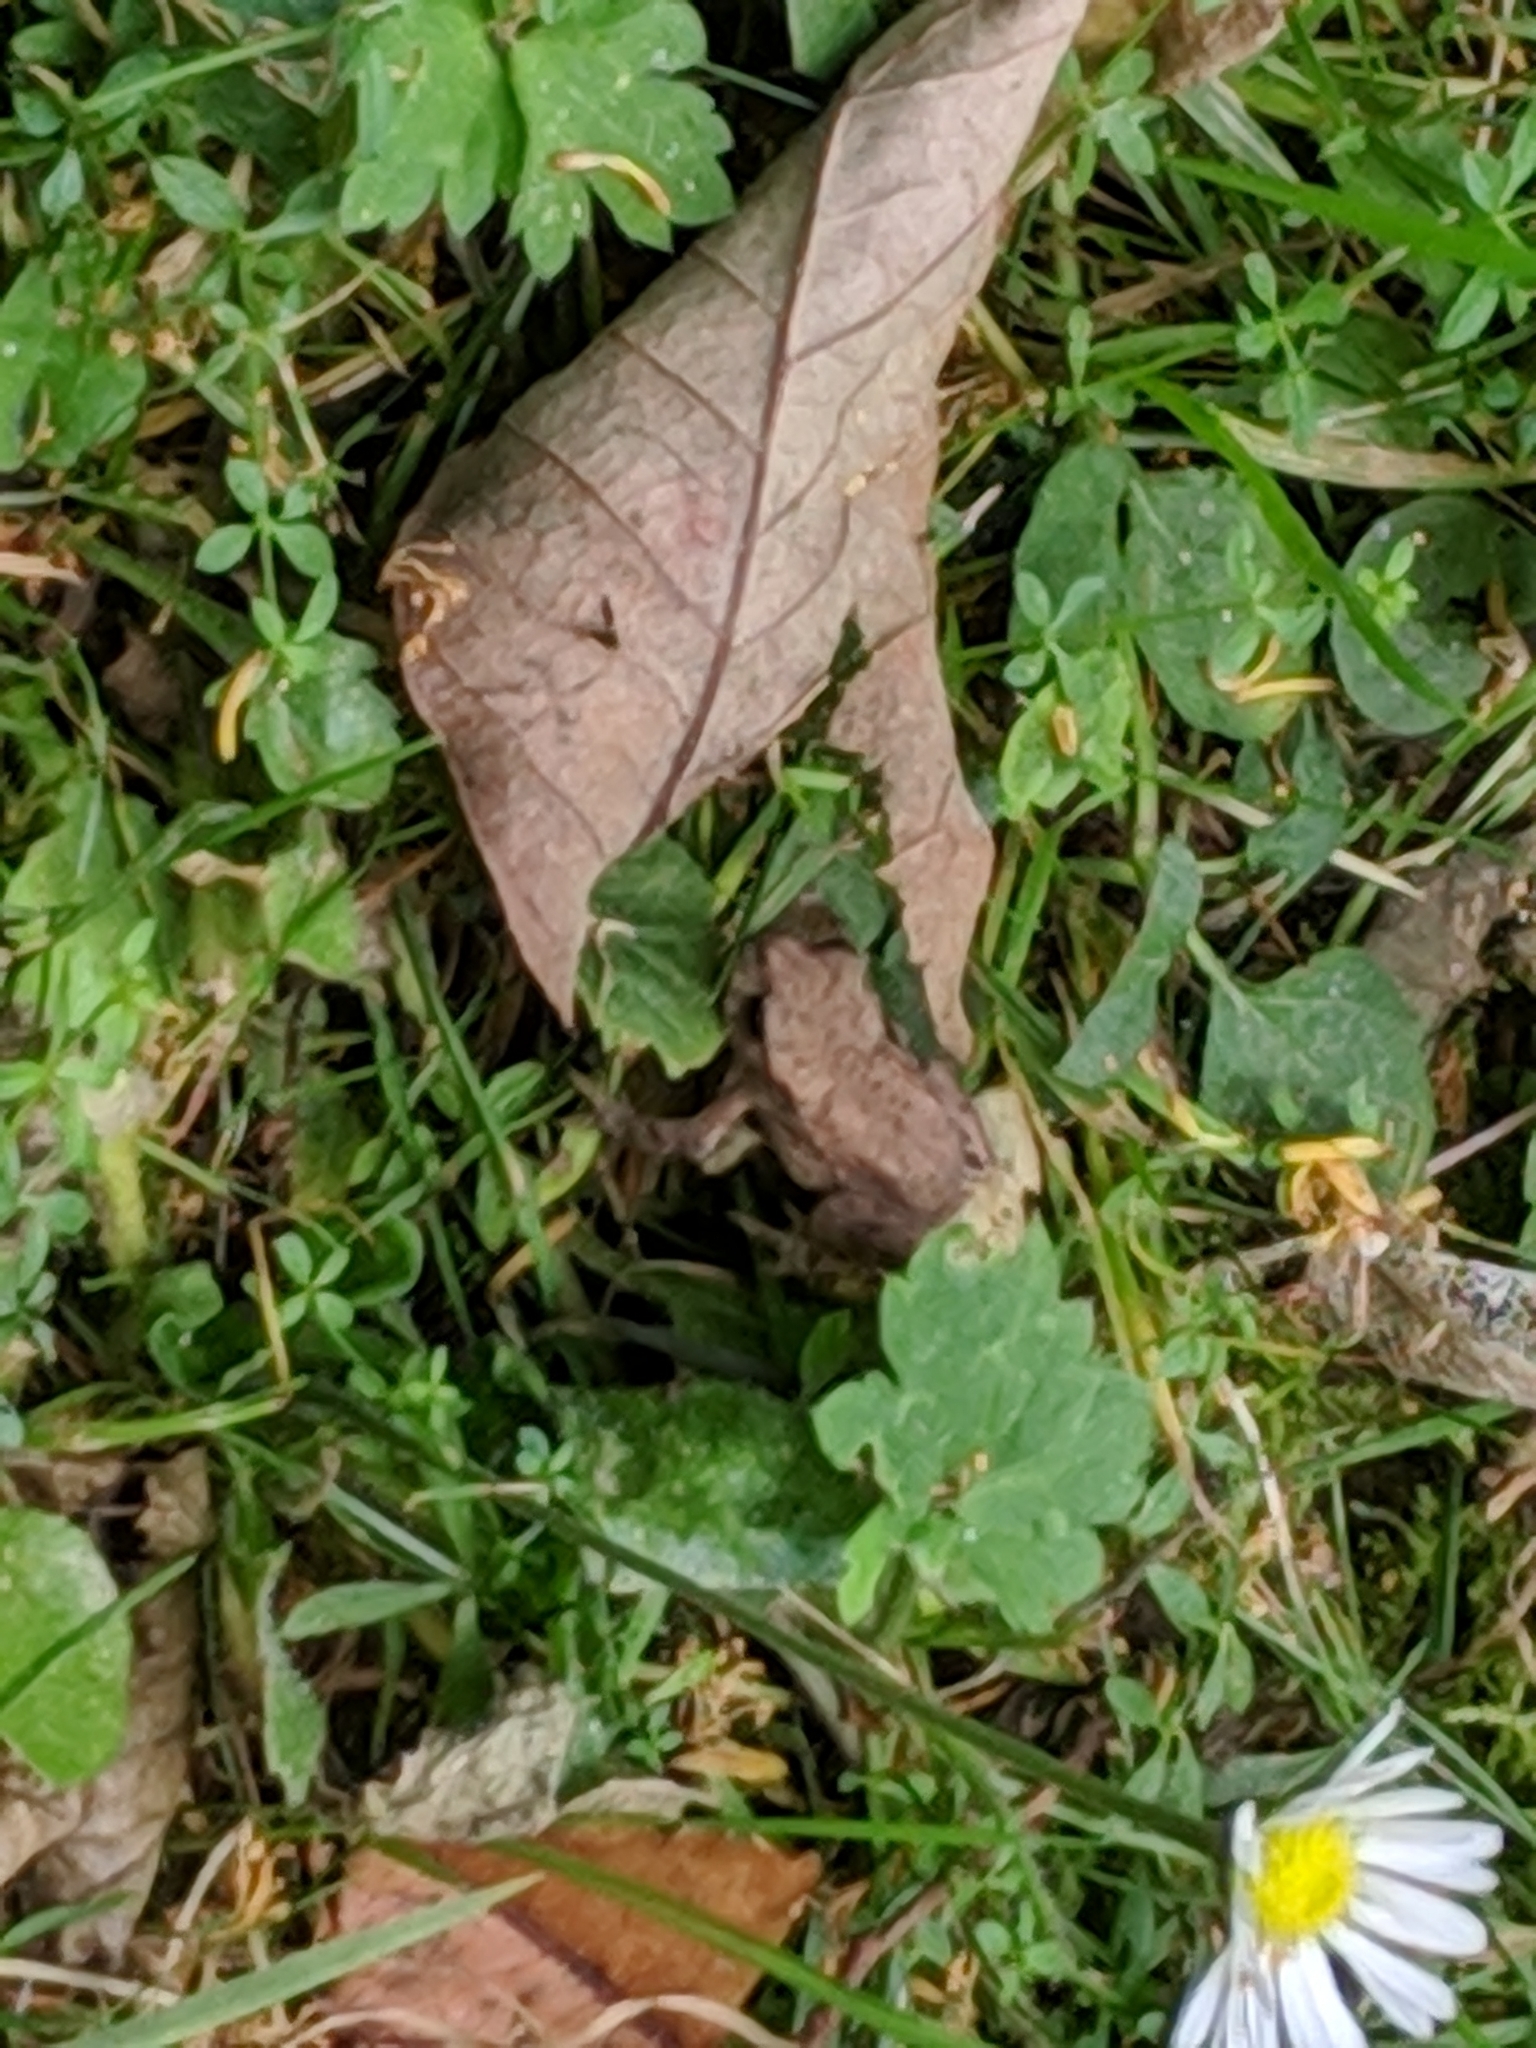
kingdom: Animalia
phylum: Chordata
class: Amphibia
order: Anura
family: Bufonidae
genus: Bufo
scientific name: Bufo bufo
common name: Common toad
